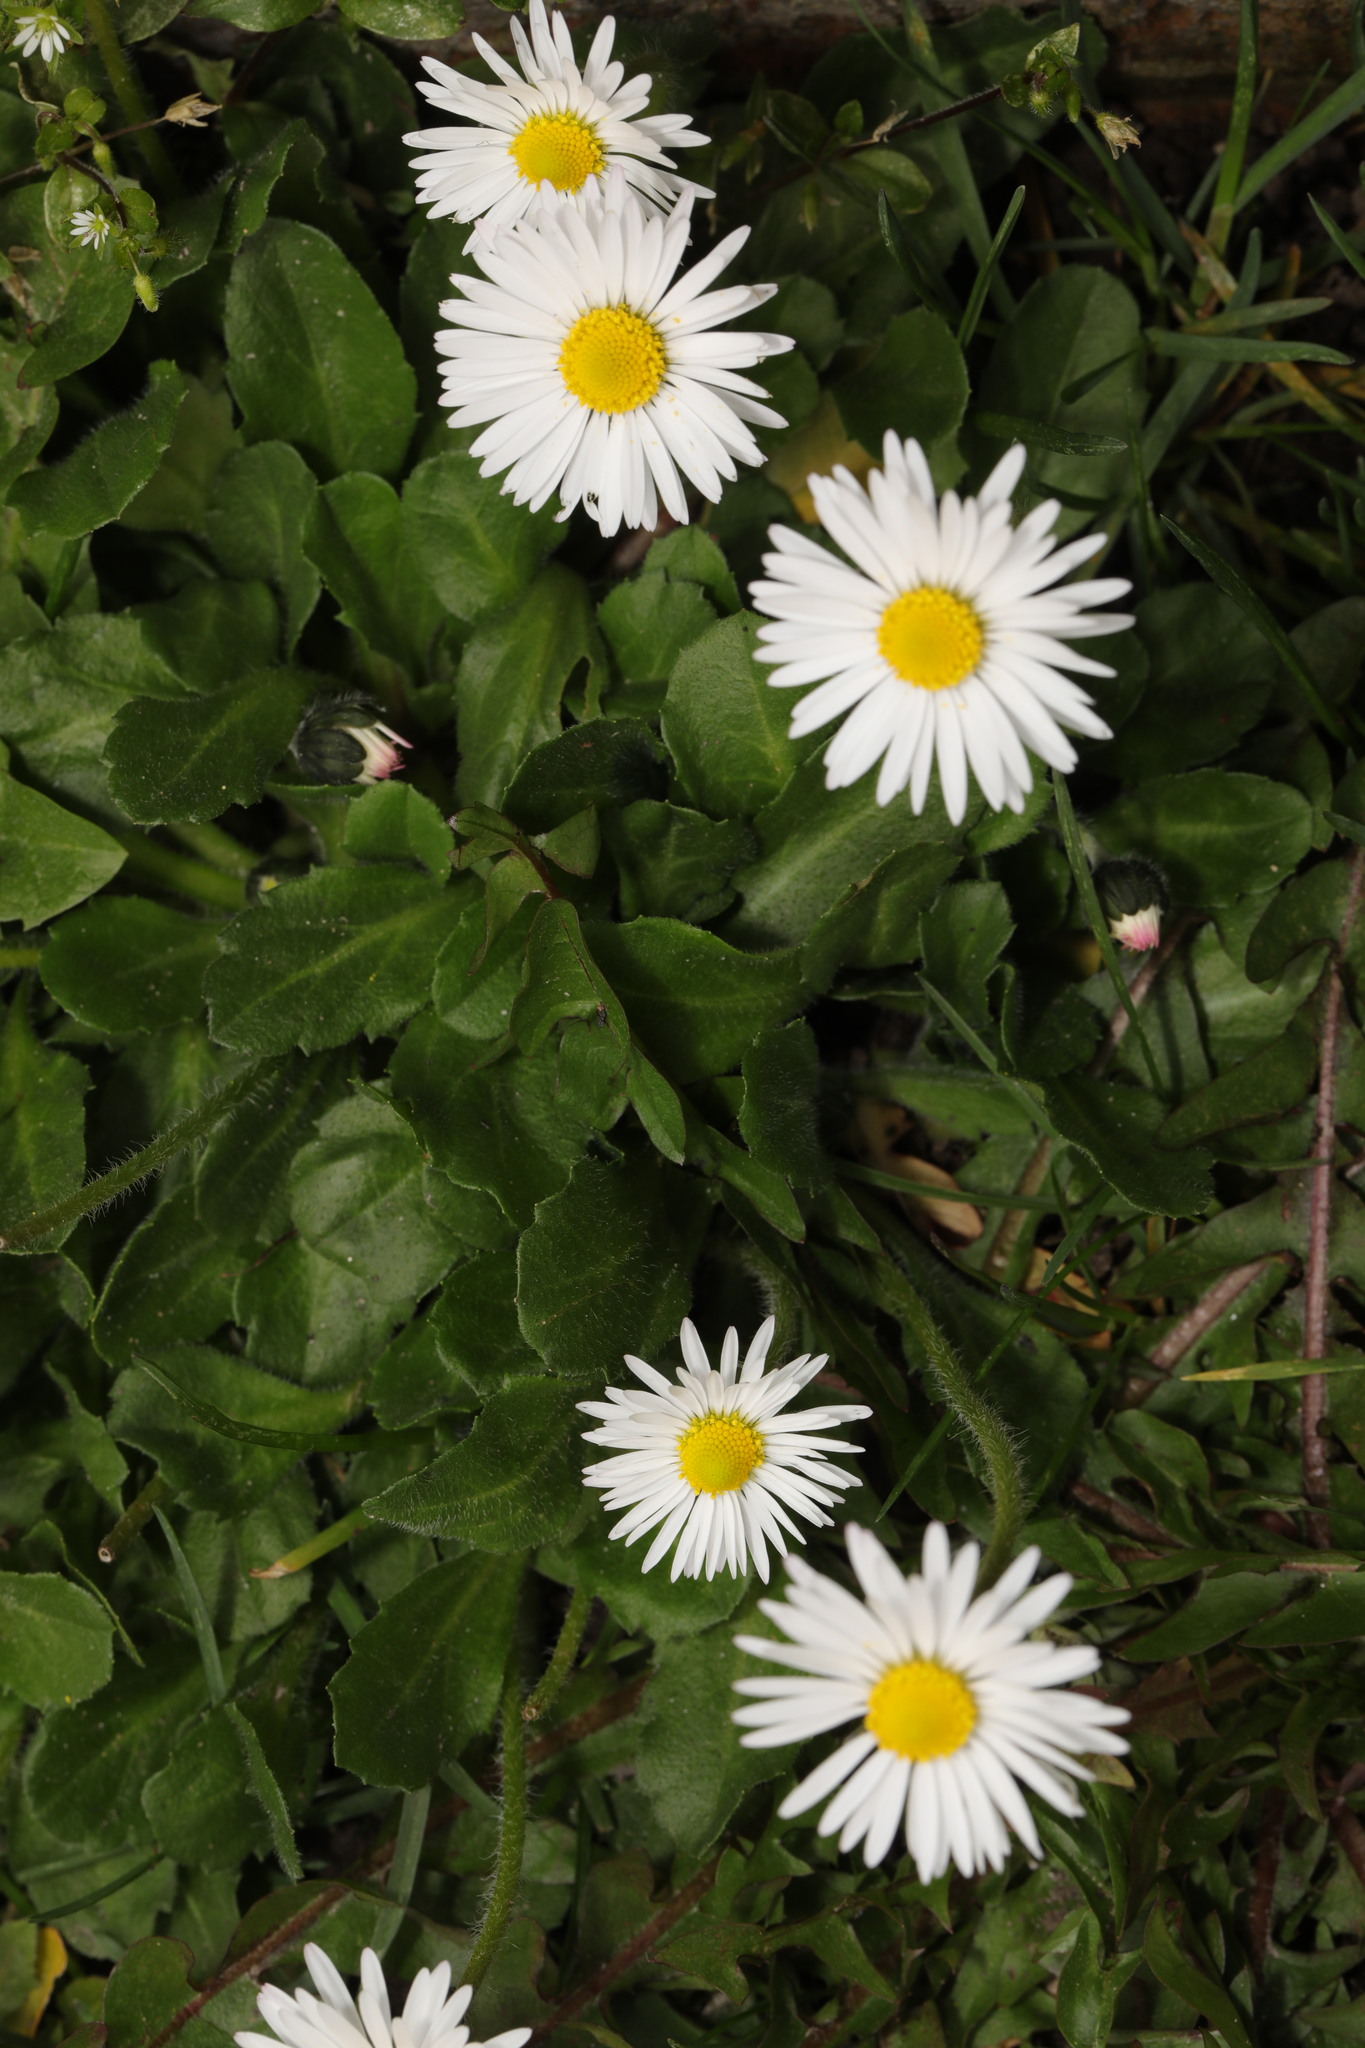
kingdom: Plantae
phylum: Tracheophyta
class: Magnoliopsida
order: Asterales
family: Asteraceae
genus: Bellis
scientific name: Bellis perennis
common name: Lawndaisy
